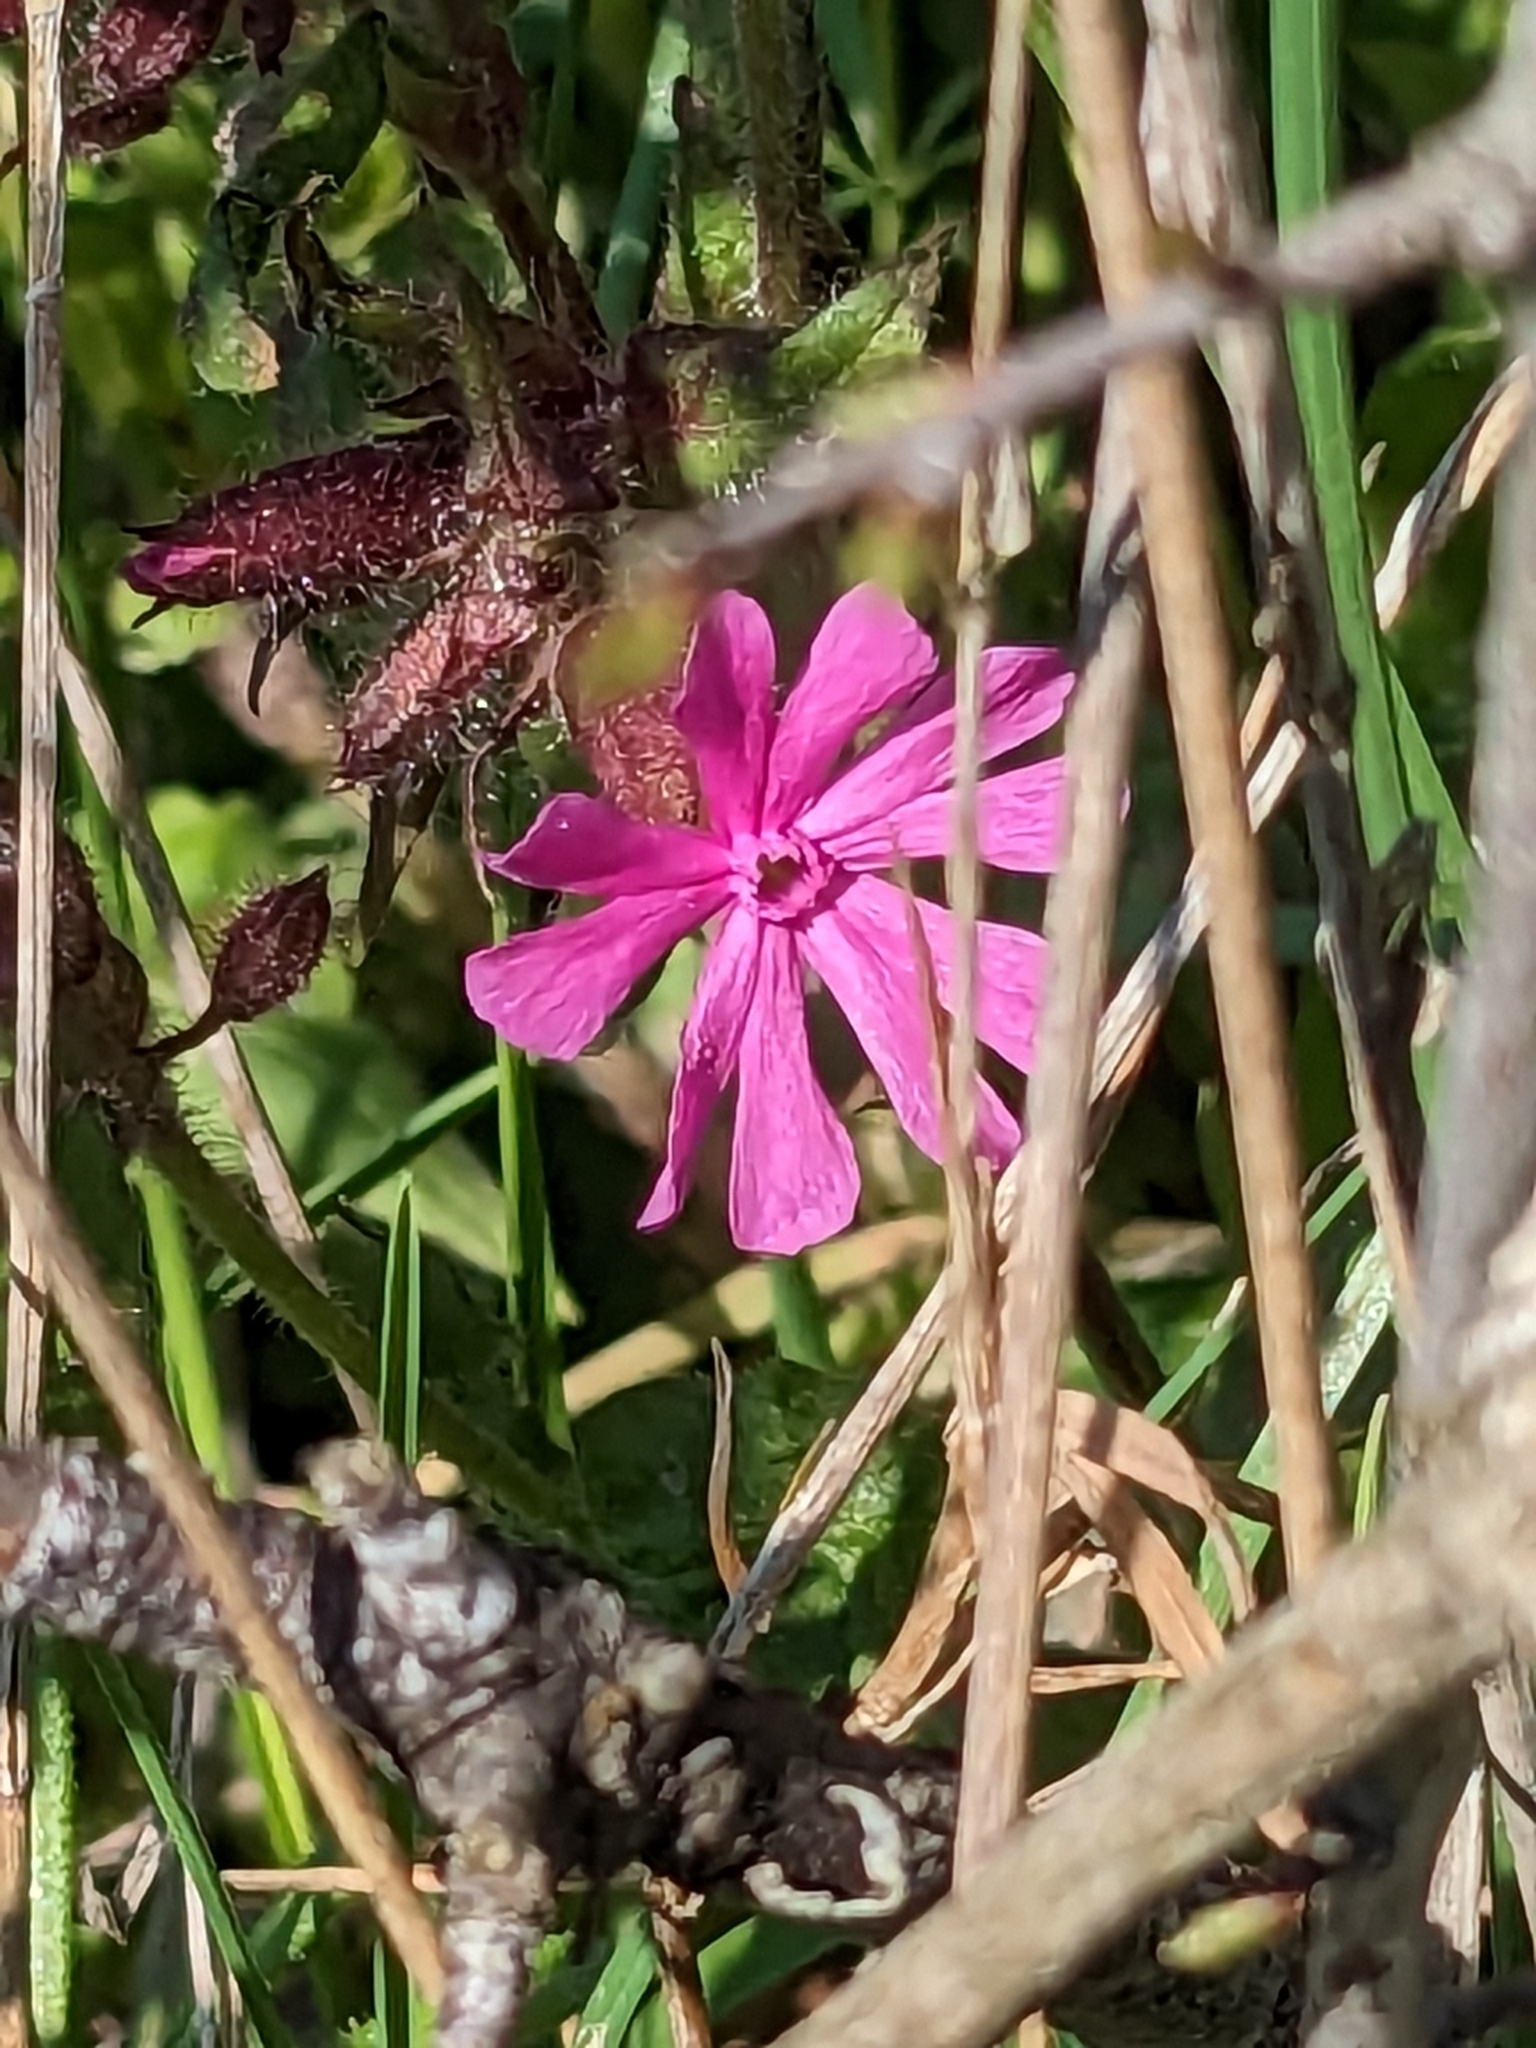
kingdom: Plantae
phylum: Tracheophyta
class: Magnoliopsida
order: Caryophyllales
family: Caryophyllaceae
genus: Silene
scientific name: Silene dioica
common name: Red campion
